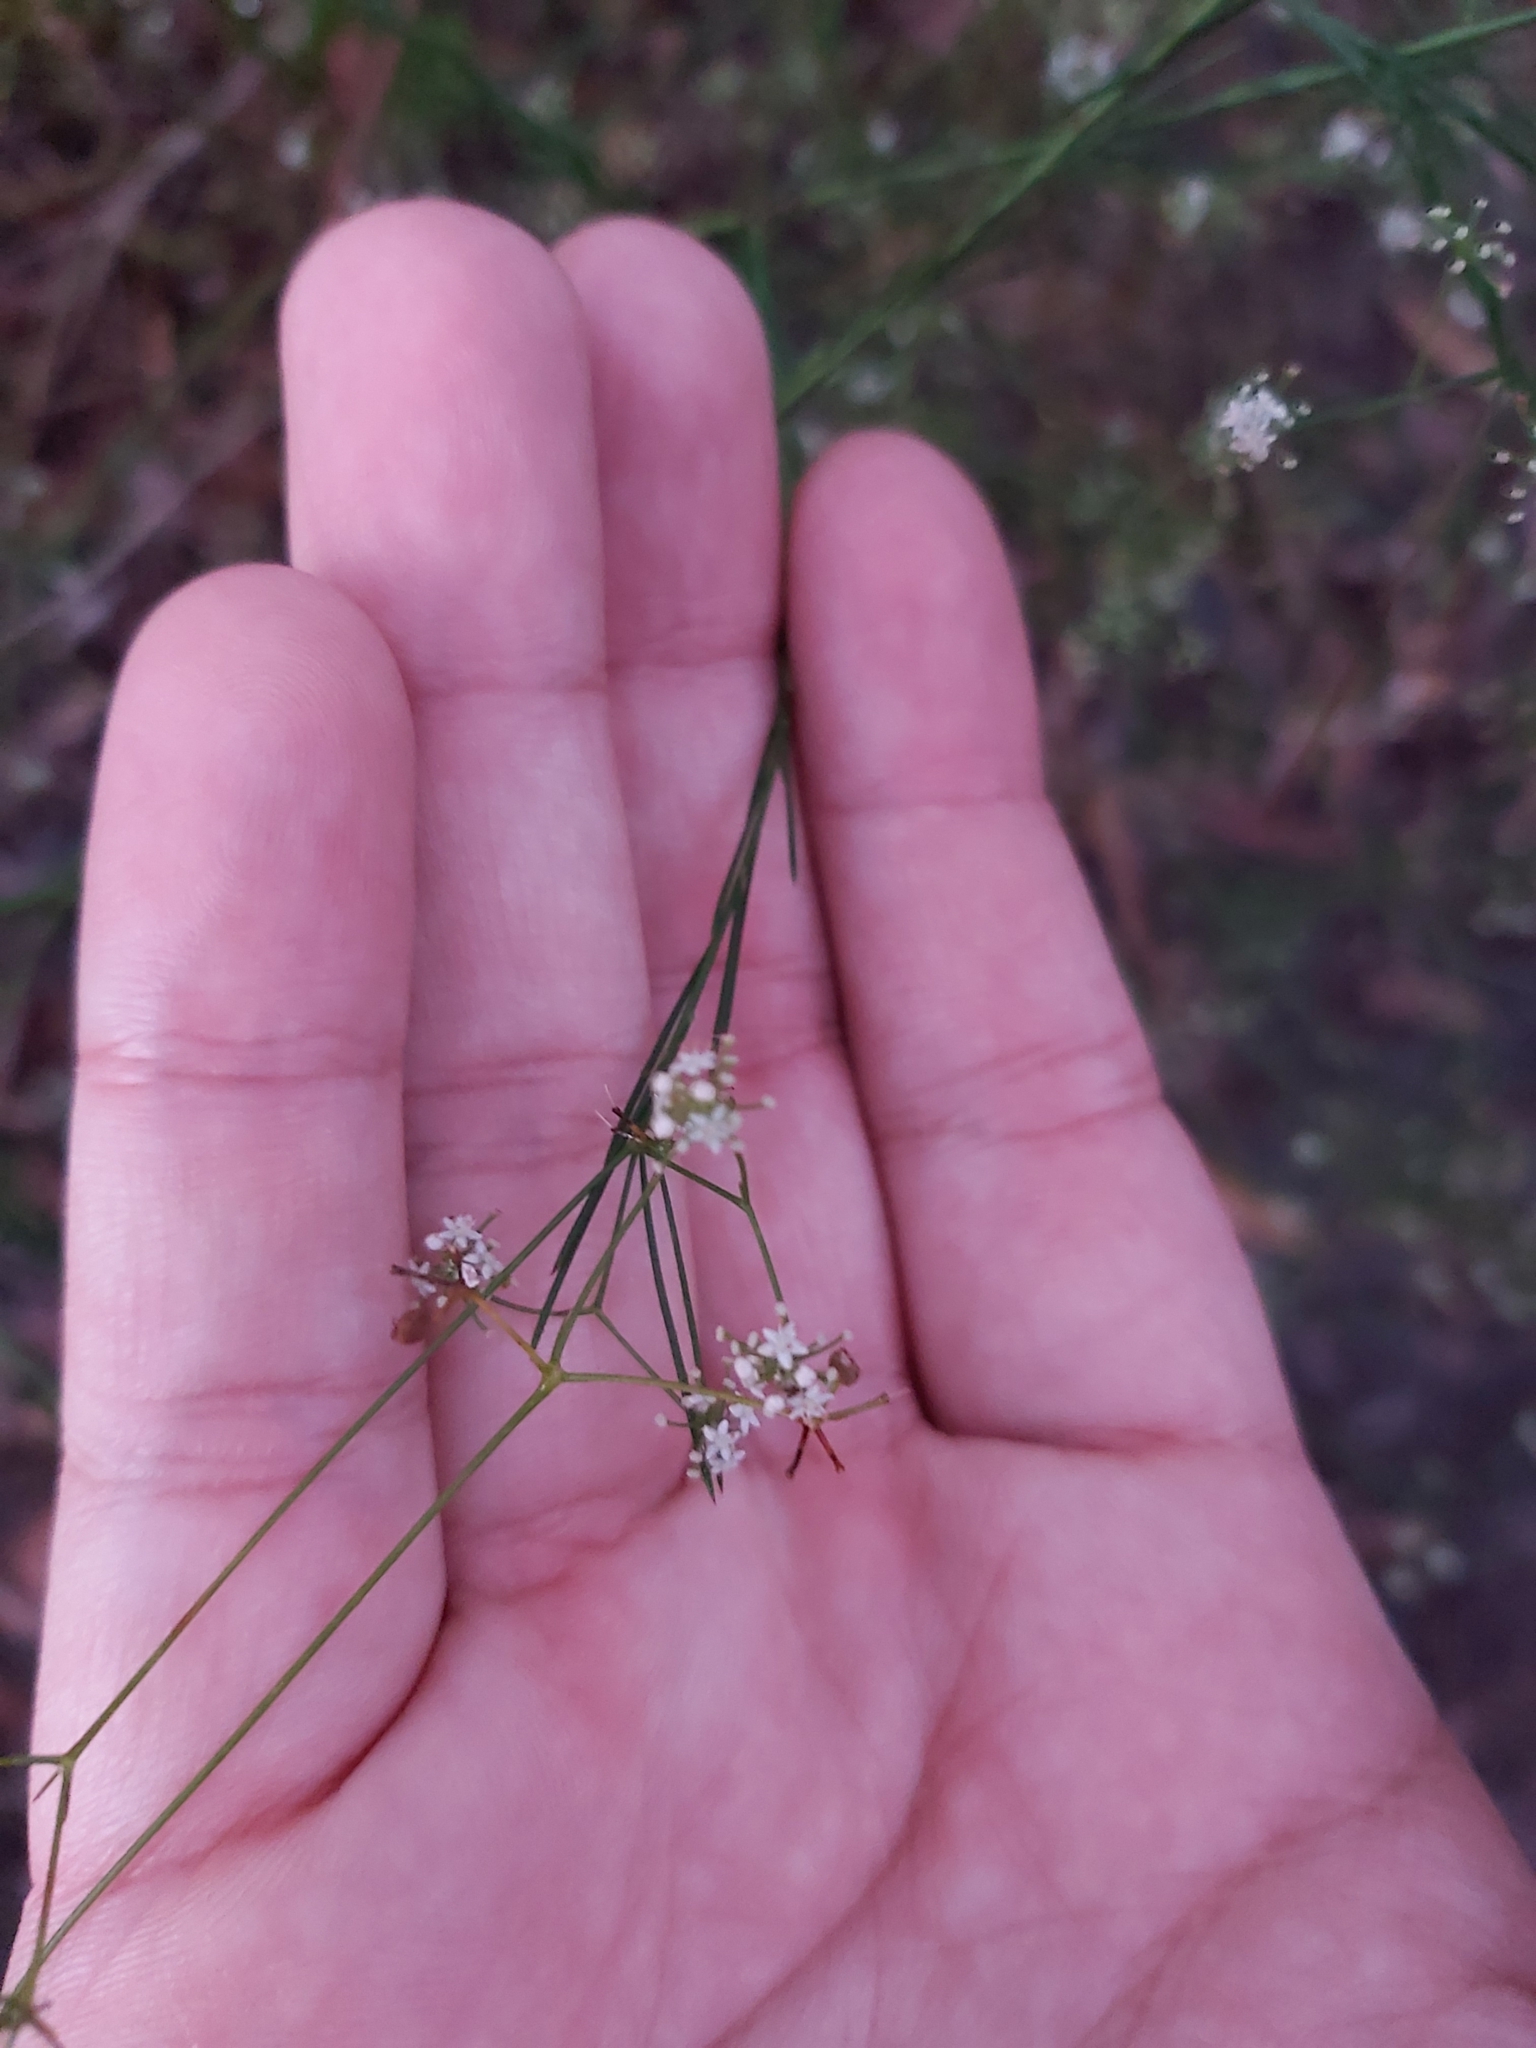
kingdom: Plantae
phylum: Tracheophyta
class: Magnoliopsida
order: Apiales
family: Apiaceae
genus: Platysace
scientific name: Platysace linearifolia
